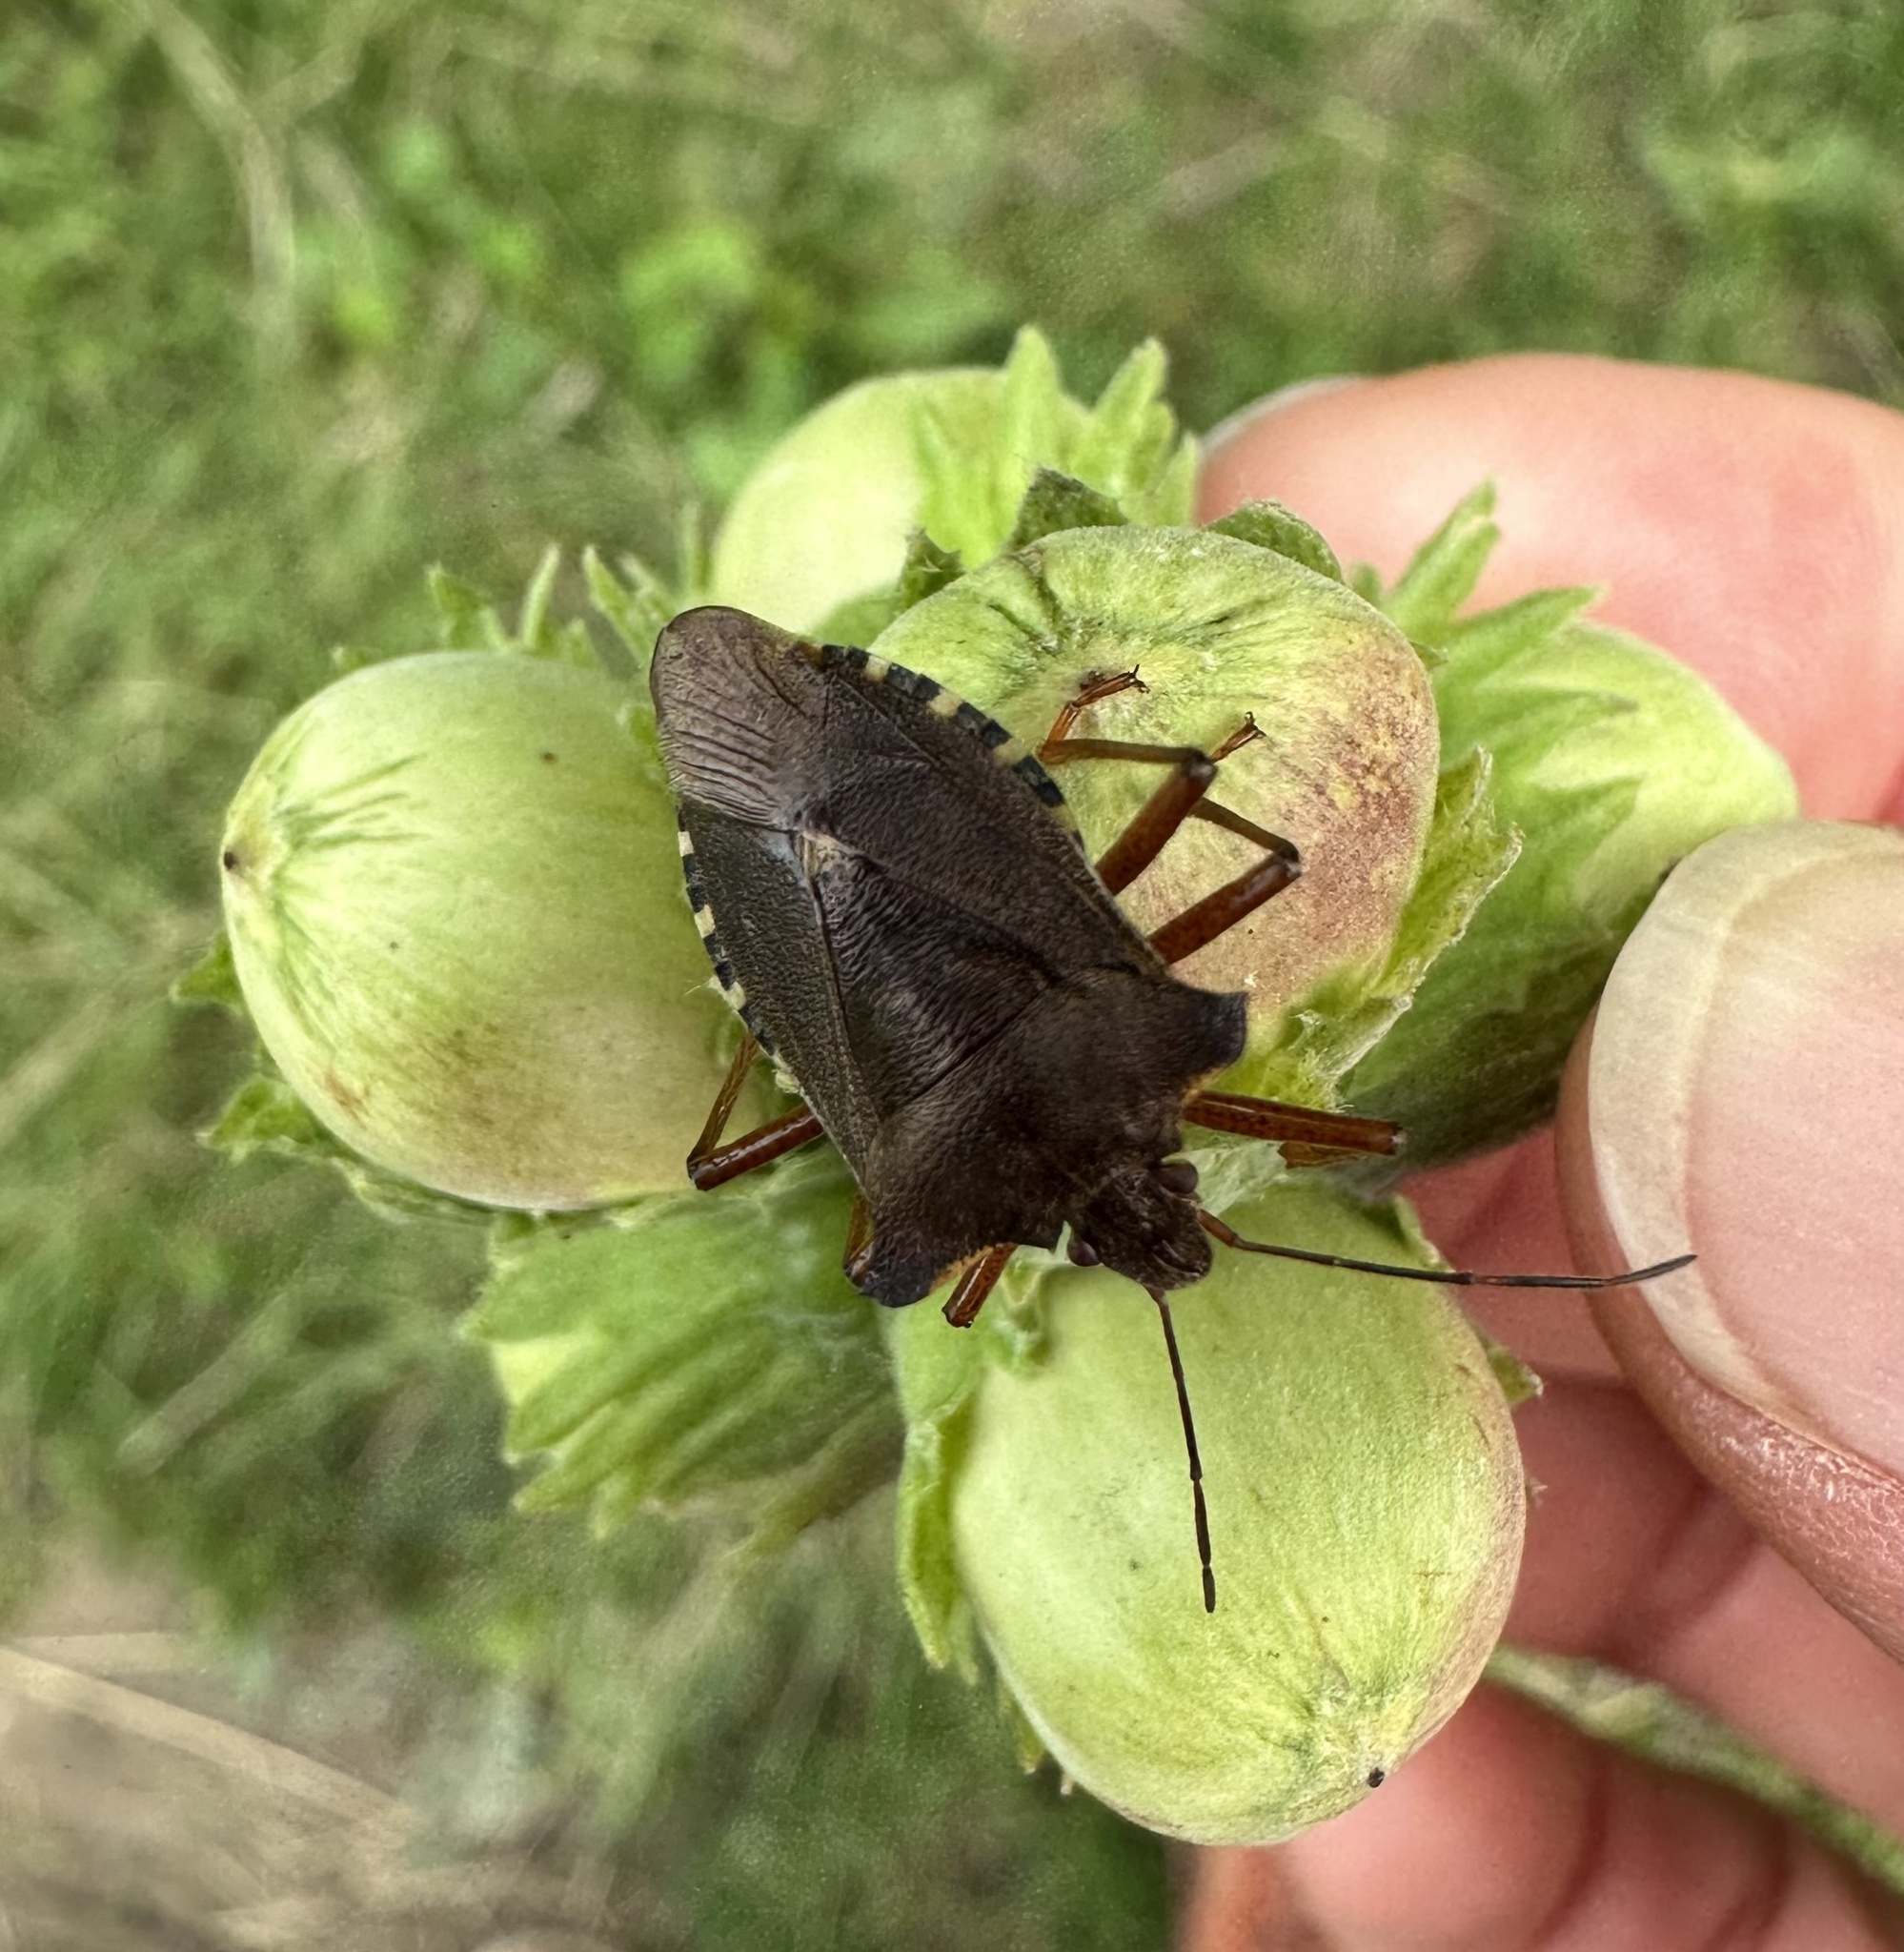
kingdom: Animalia
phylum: Arthropoda
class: Insecta
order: Hemiptera
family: Pentatomidae
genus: Pentatoma
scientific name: Pentatoma rufipes
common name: Forest bug
